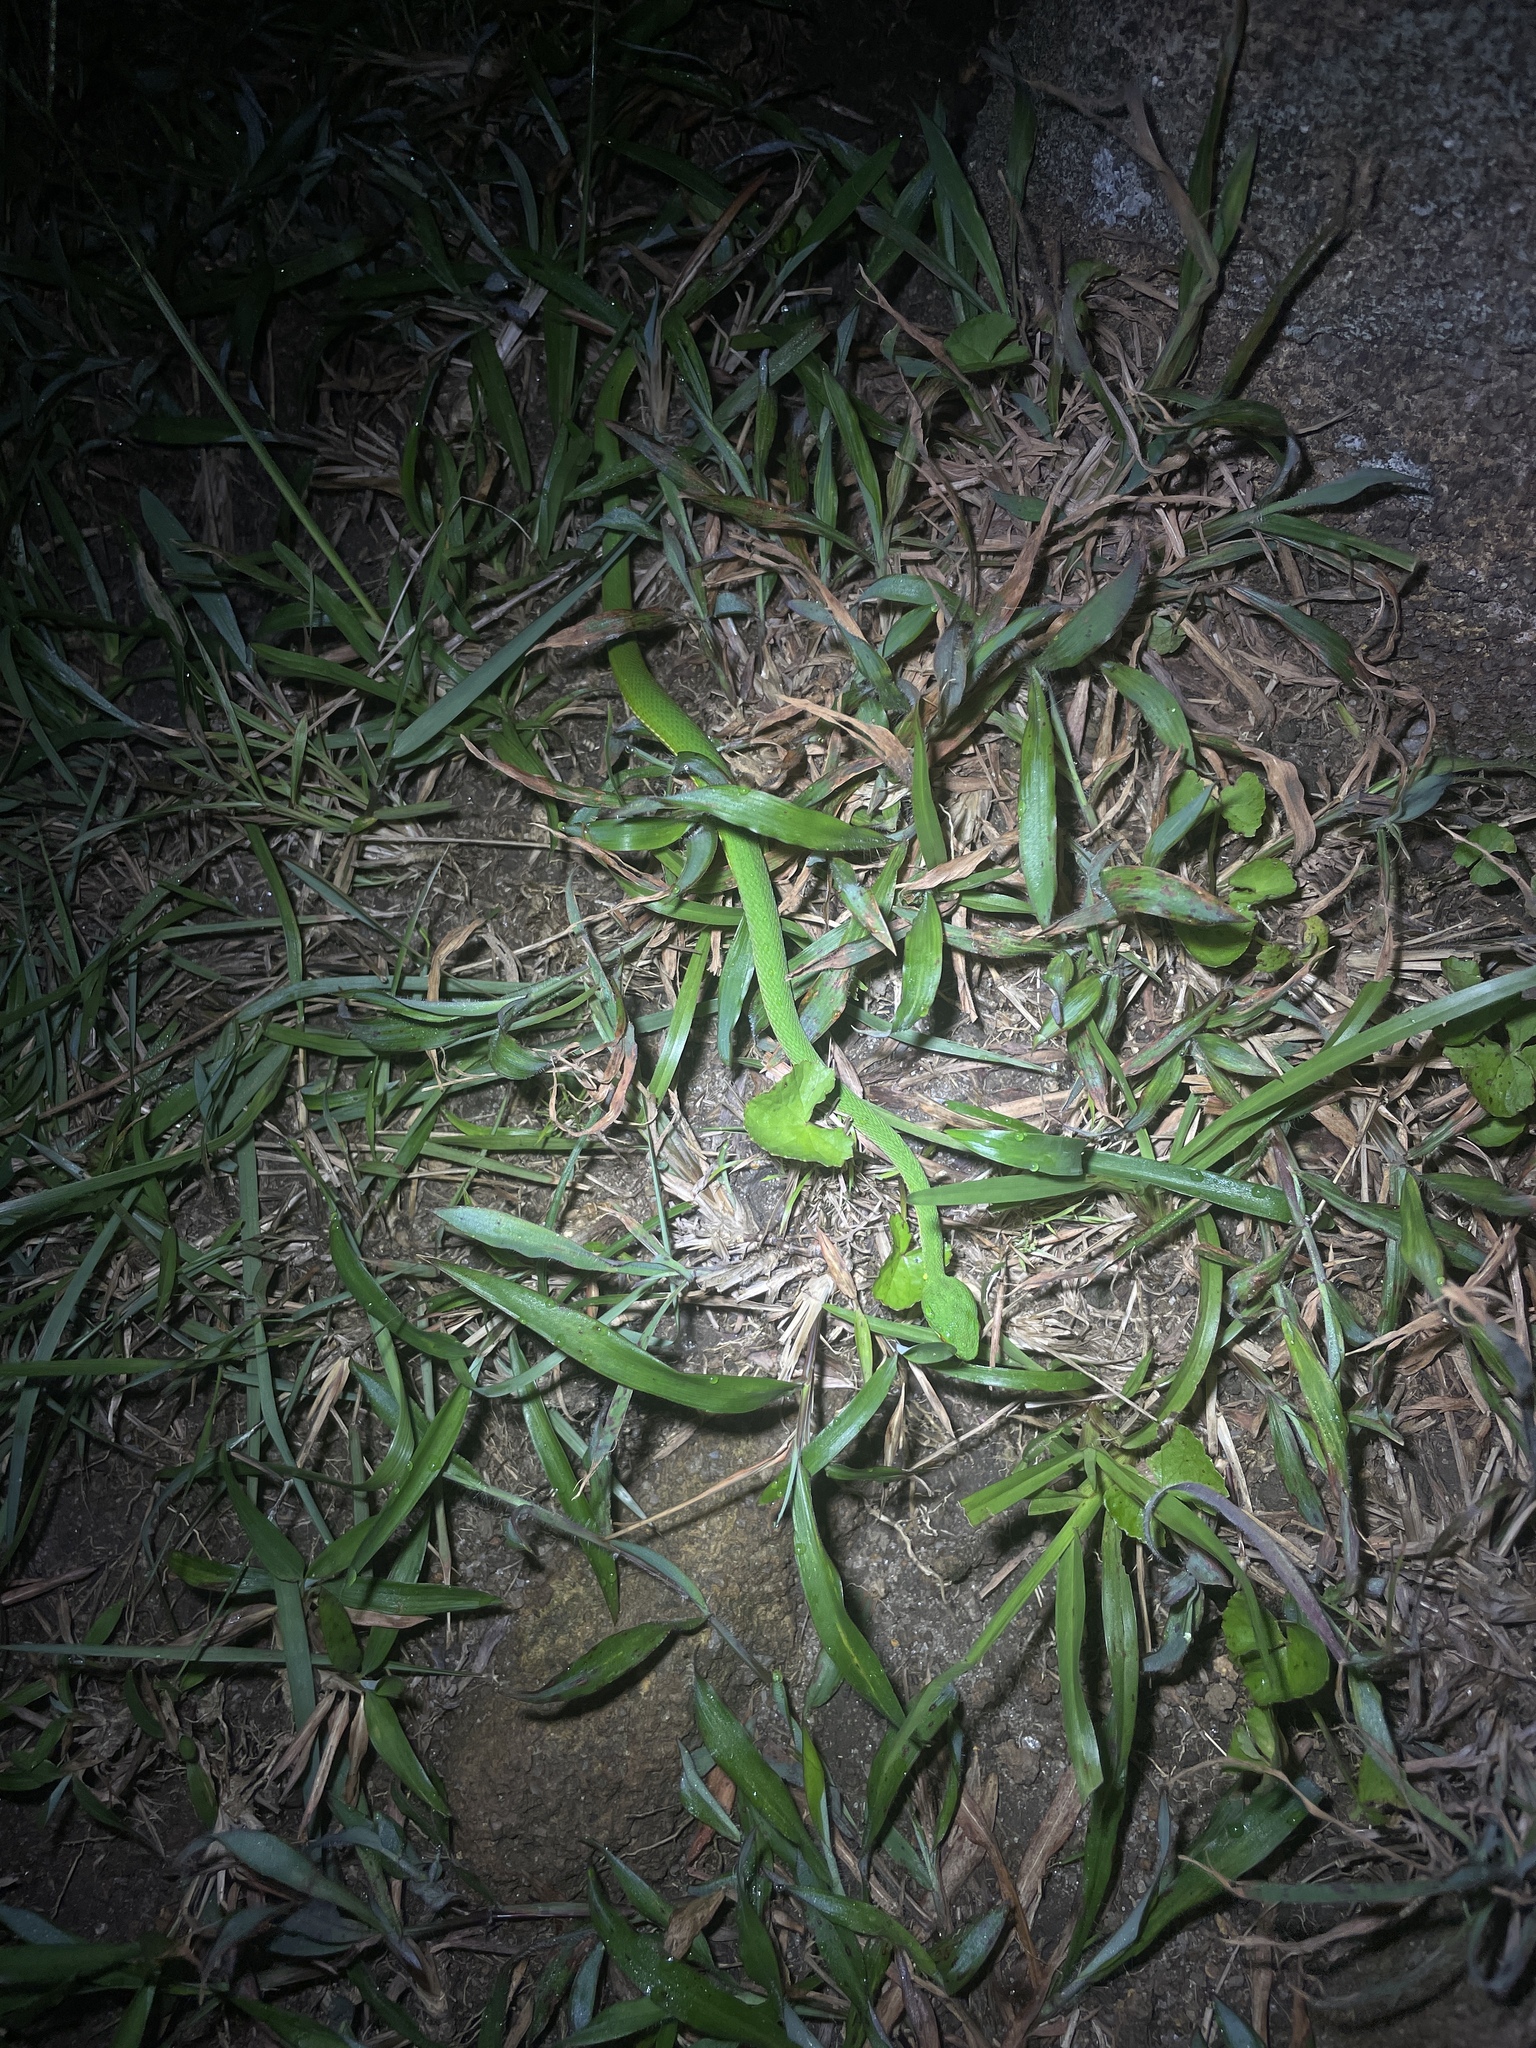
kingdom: Animalia
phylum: Chordata
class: Squamata
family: Viperidae
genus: Trimeresurus
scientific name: Trimeresurus albolabris
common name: White-lipped pitviper
